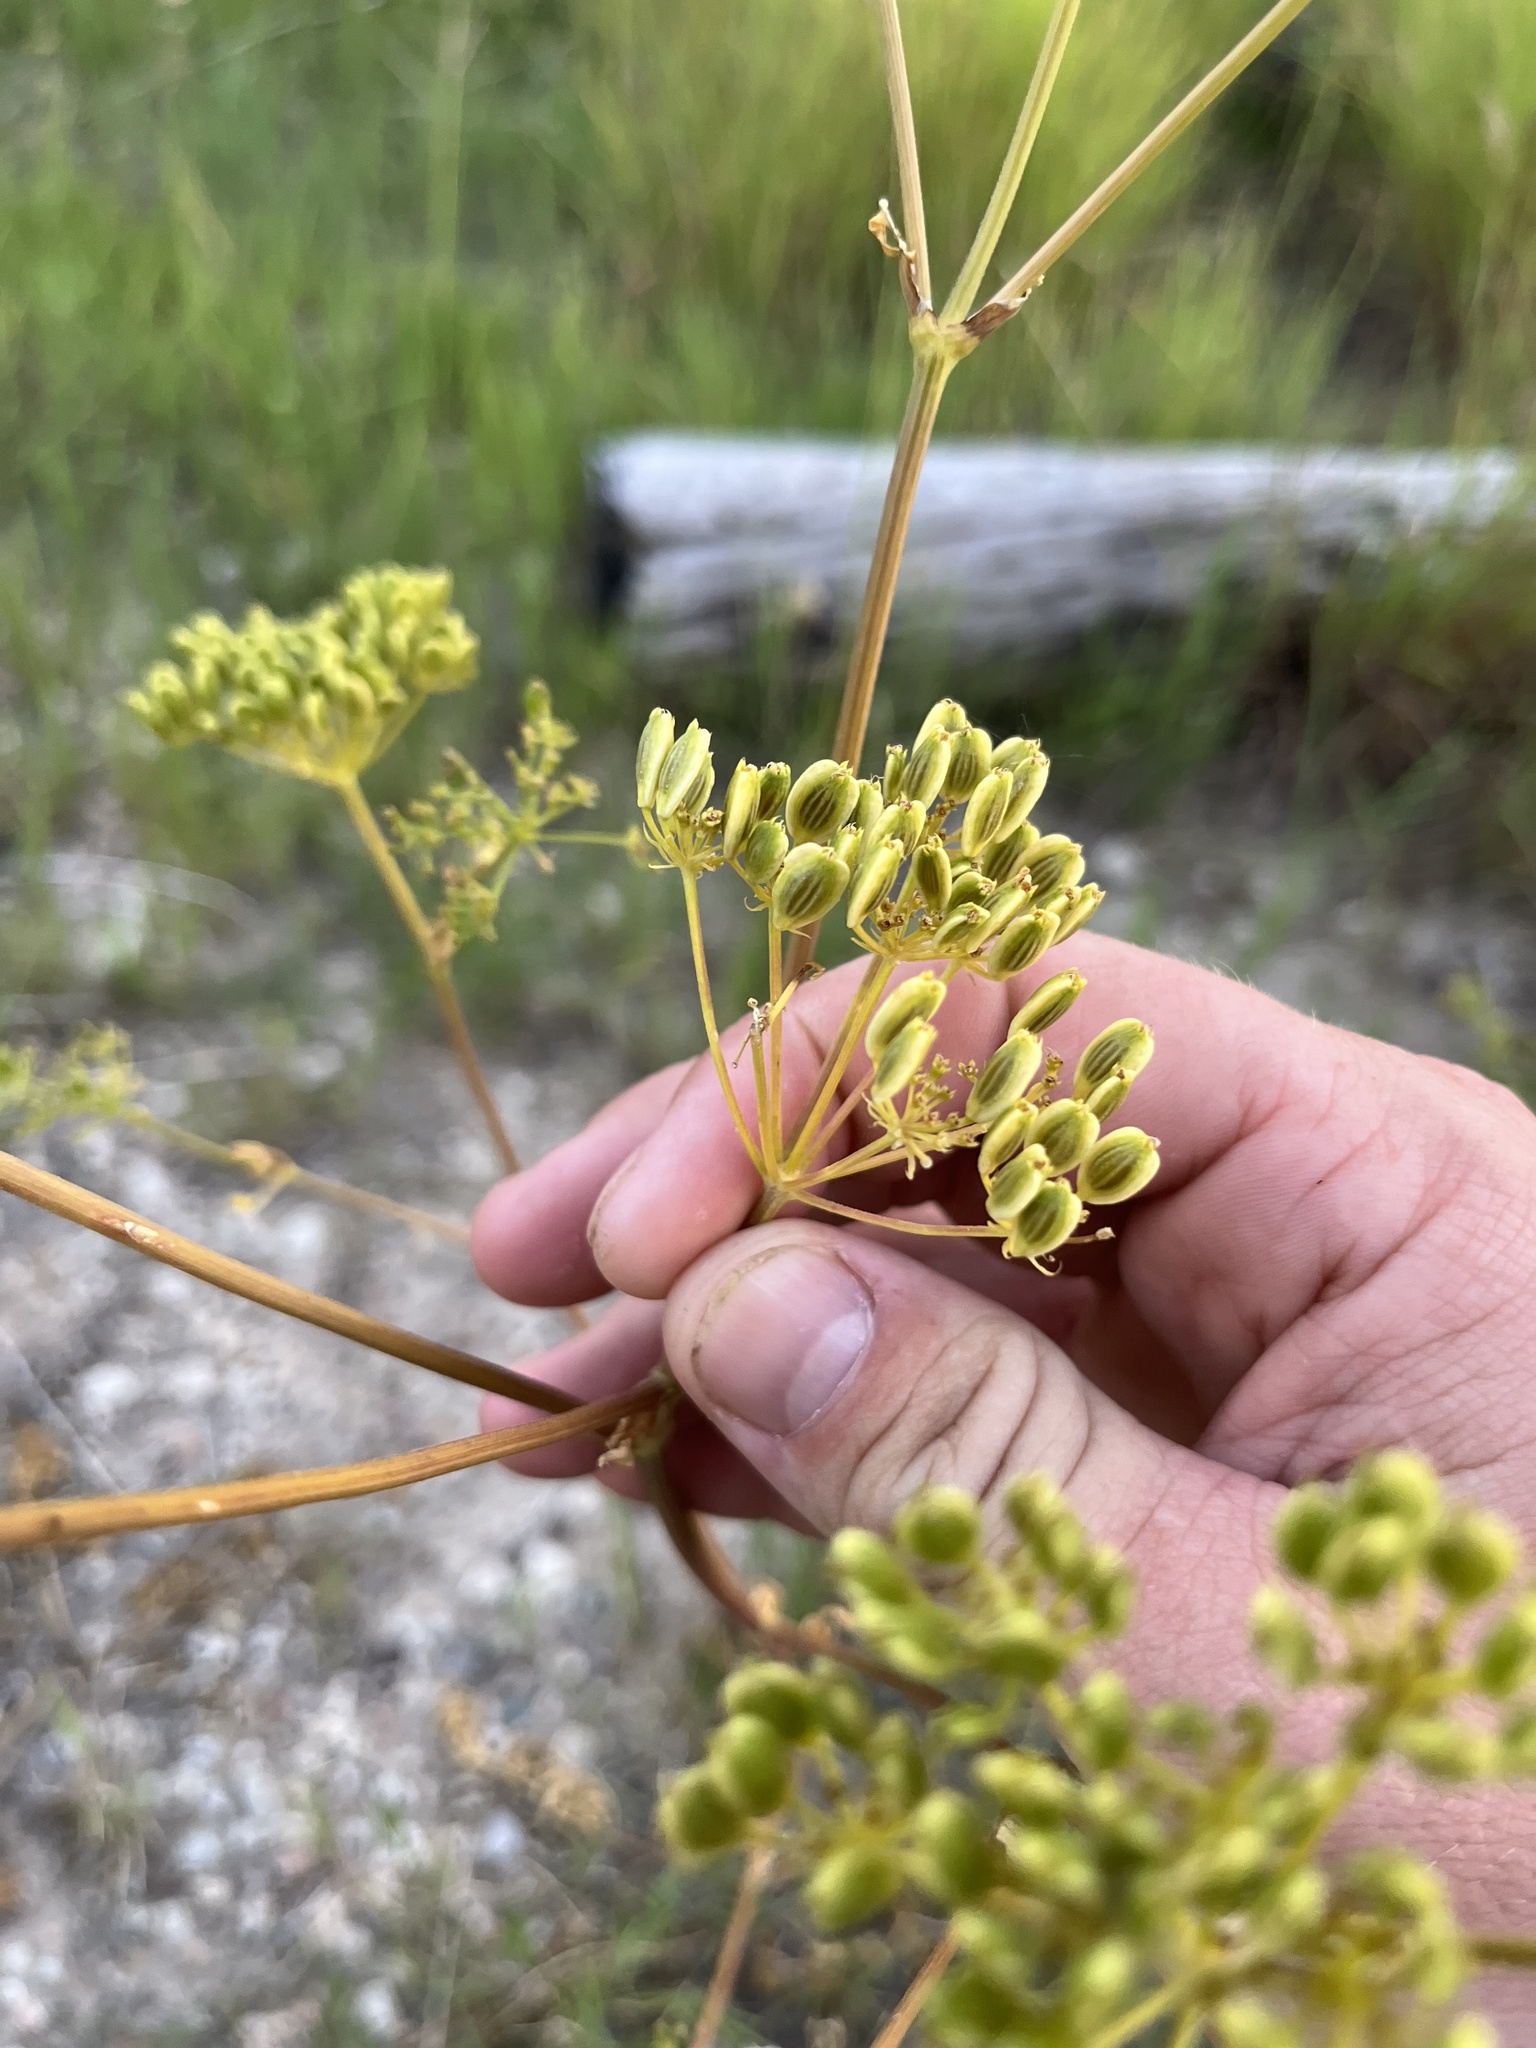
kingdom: Plantae
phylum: Tracheophyta
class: Magnoliopsida
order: Apiales
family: Apiaceae
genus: Polytaenia
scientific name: Polytaenia texana
